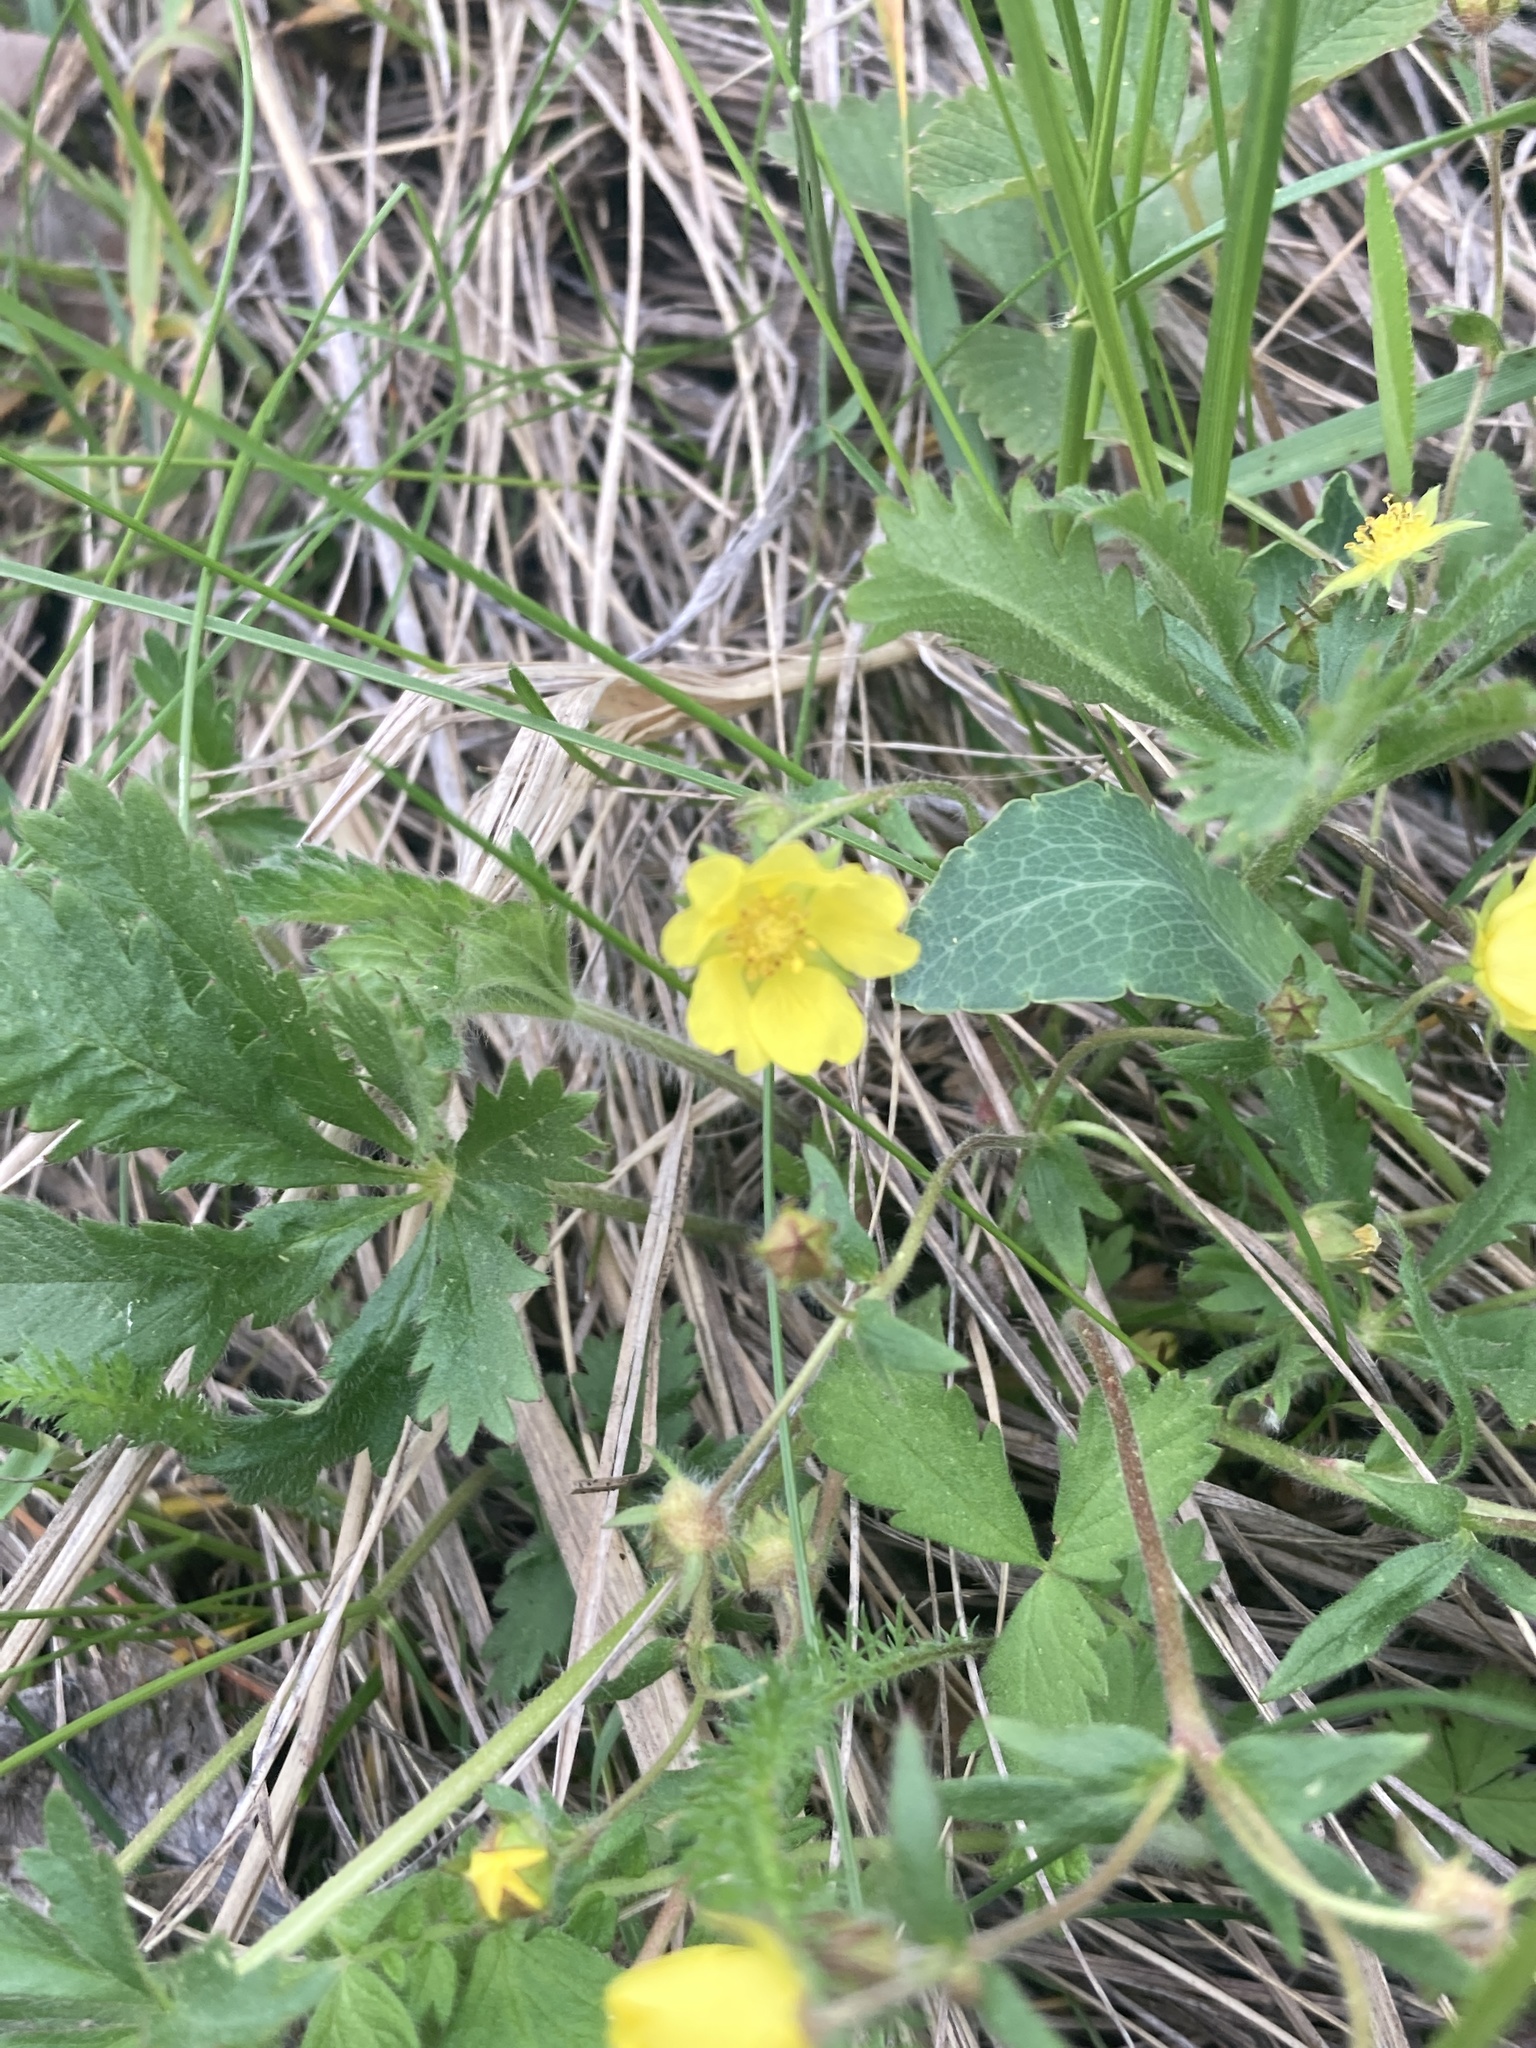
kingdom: Plantae
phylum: Tracheophyta
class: Magnoliopsida
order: Rosales
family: Rosaceae
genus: Potentilla
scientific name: Potentilla humifusa
